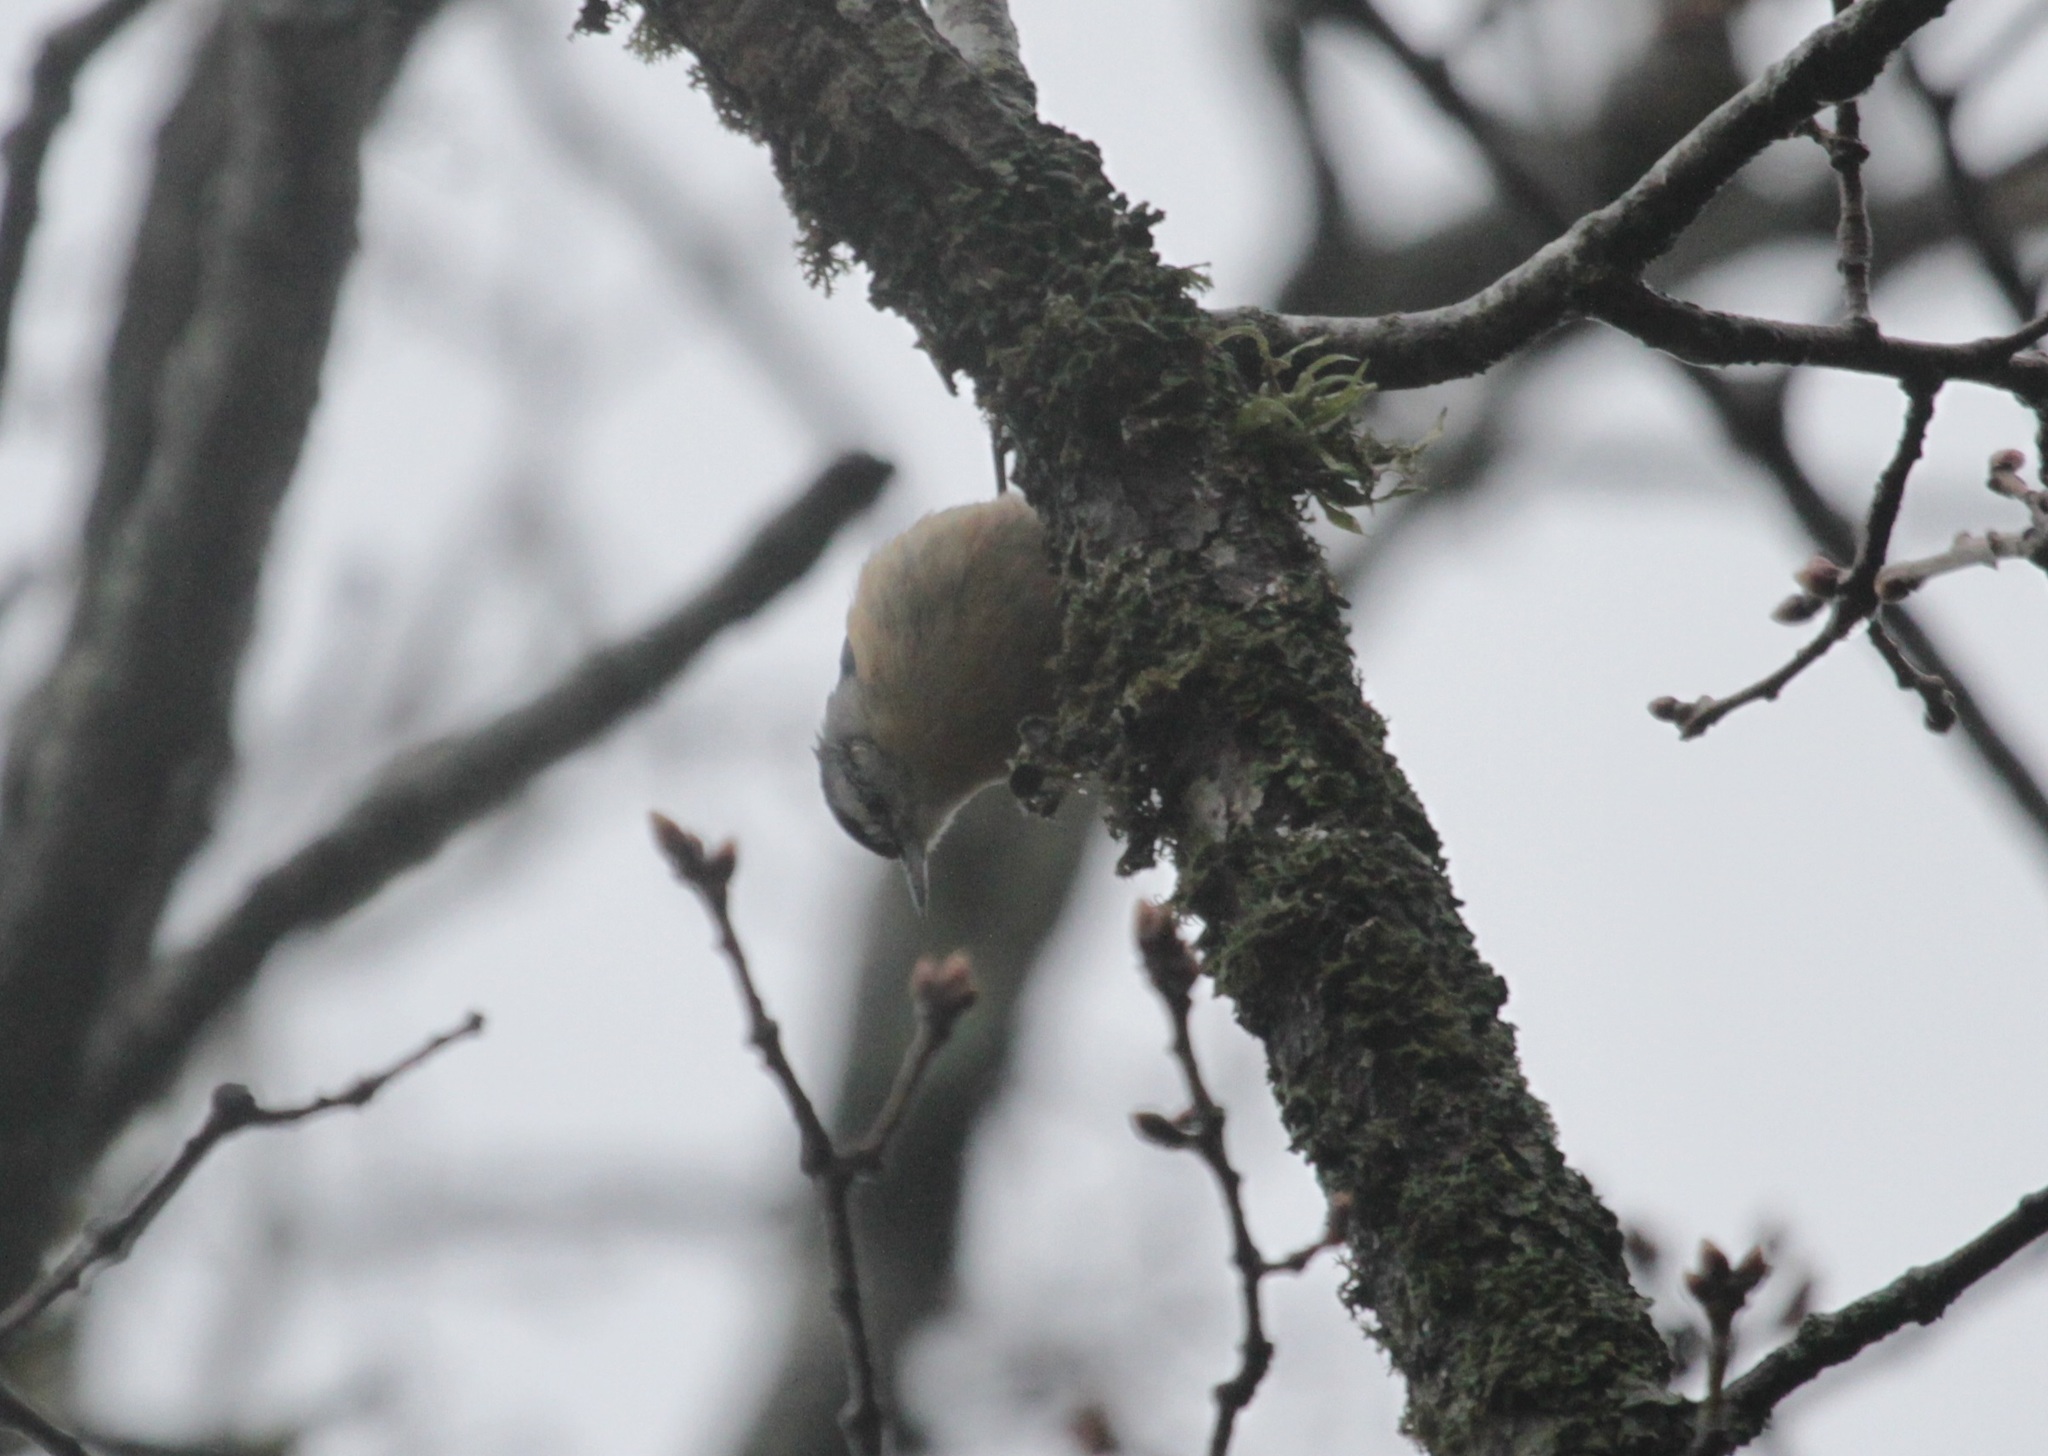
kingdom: Animalia
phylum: Chordata
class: Aves
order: Passeriformes
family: Sittidae
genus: Sitta
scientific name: Sitta ledanti
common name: Algerian nuthatch
